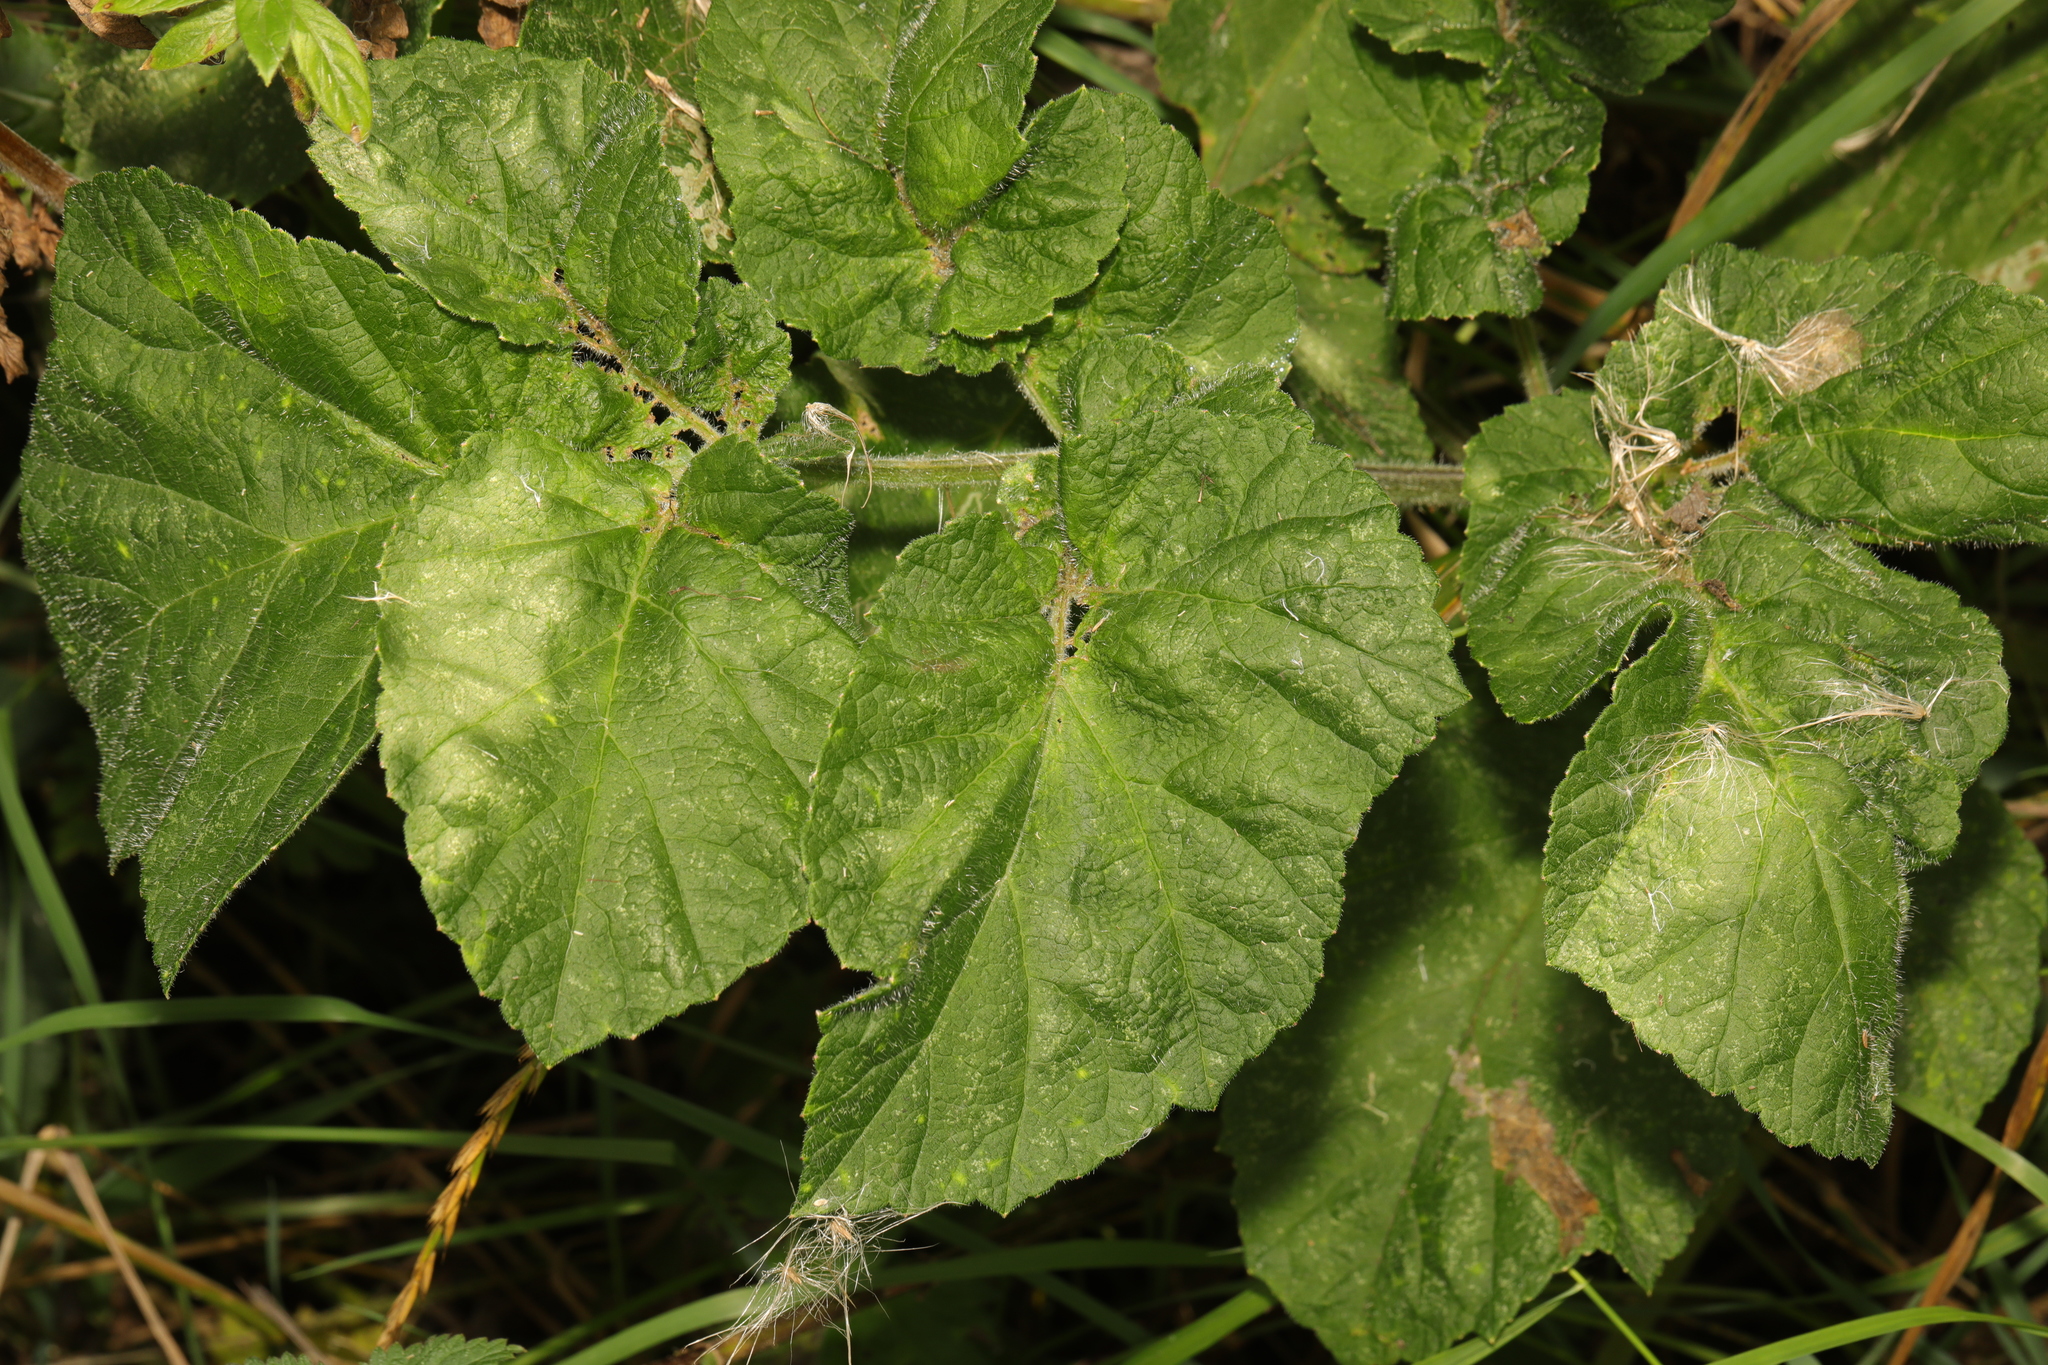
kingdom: Plantae
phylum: Tracheophyta
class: Magnoliopsida
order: Apiales
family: Apiaceae
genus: Heracleum
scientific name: Heracleum sphondylium
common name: Hogweed
